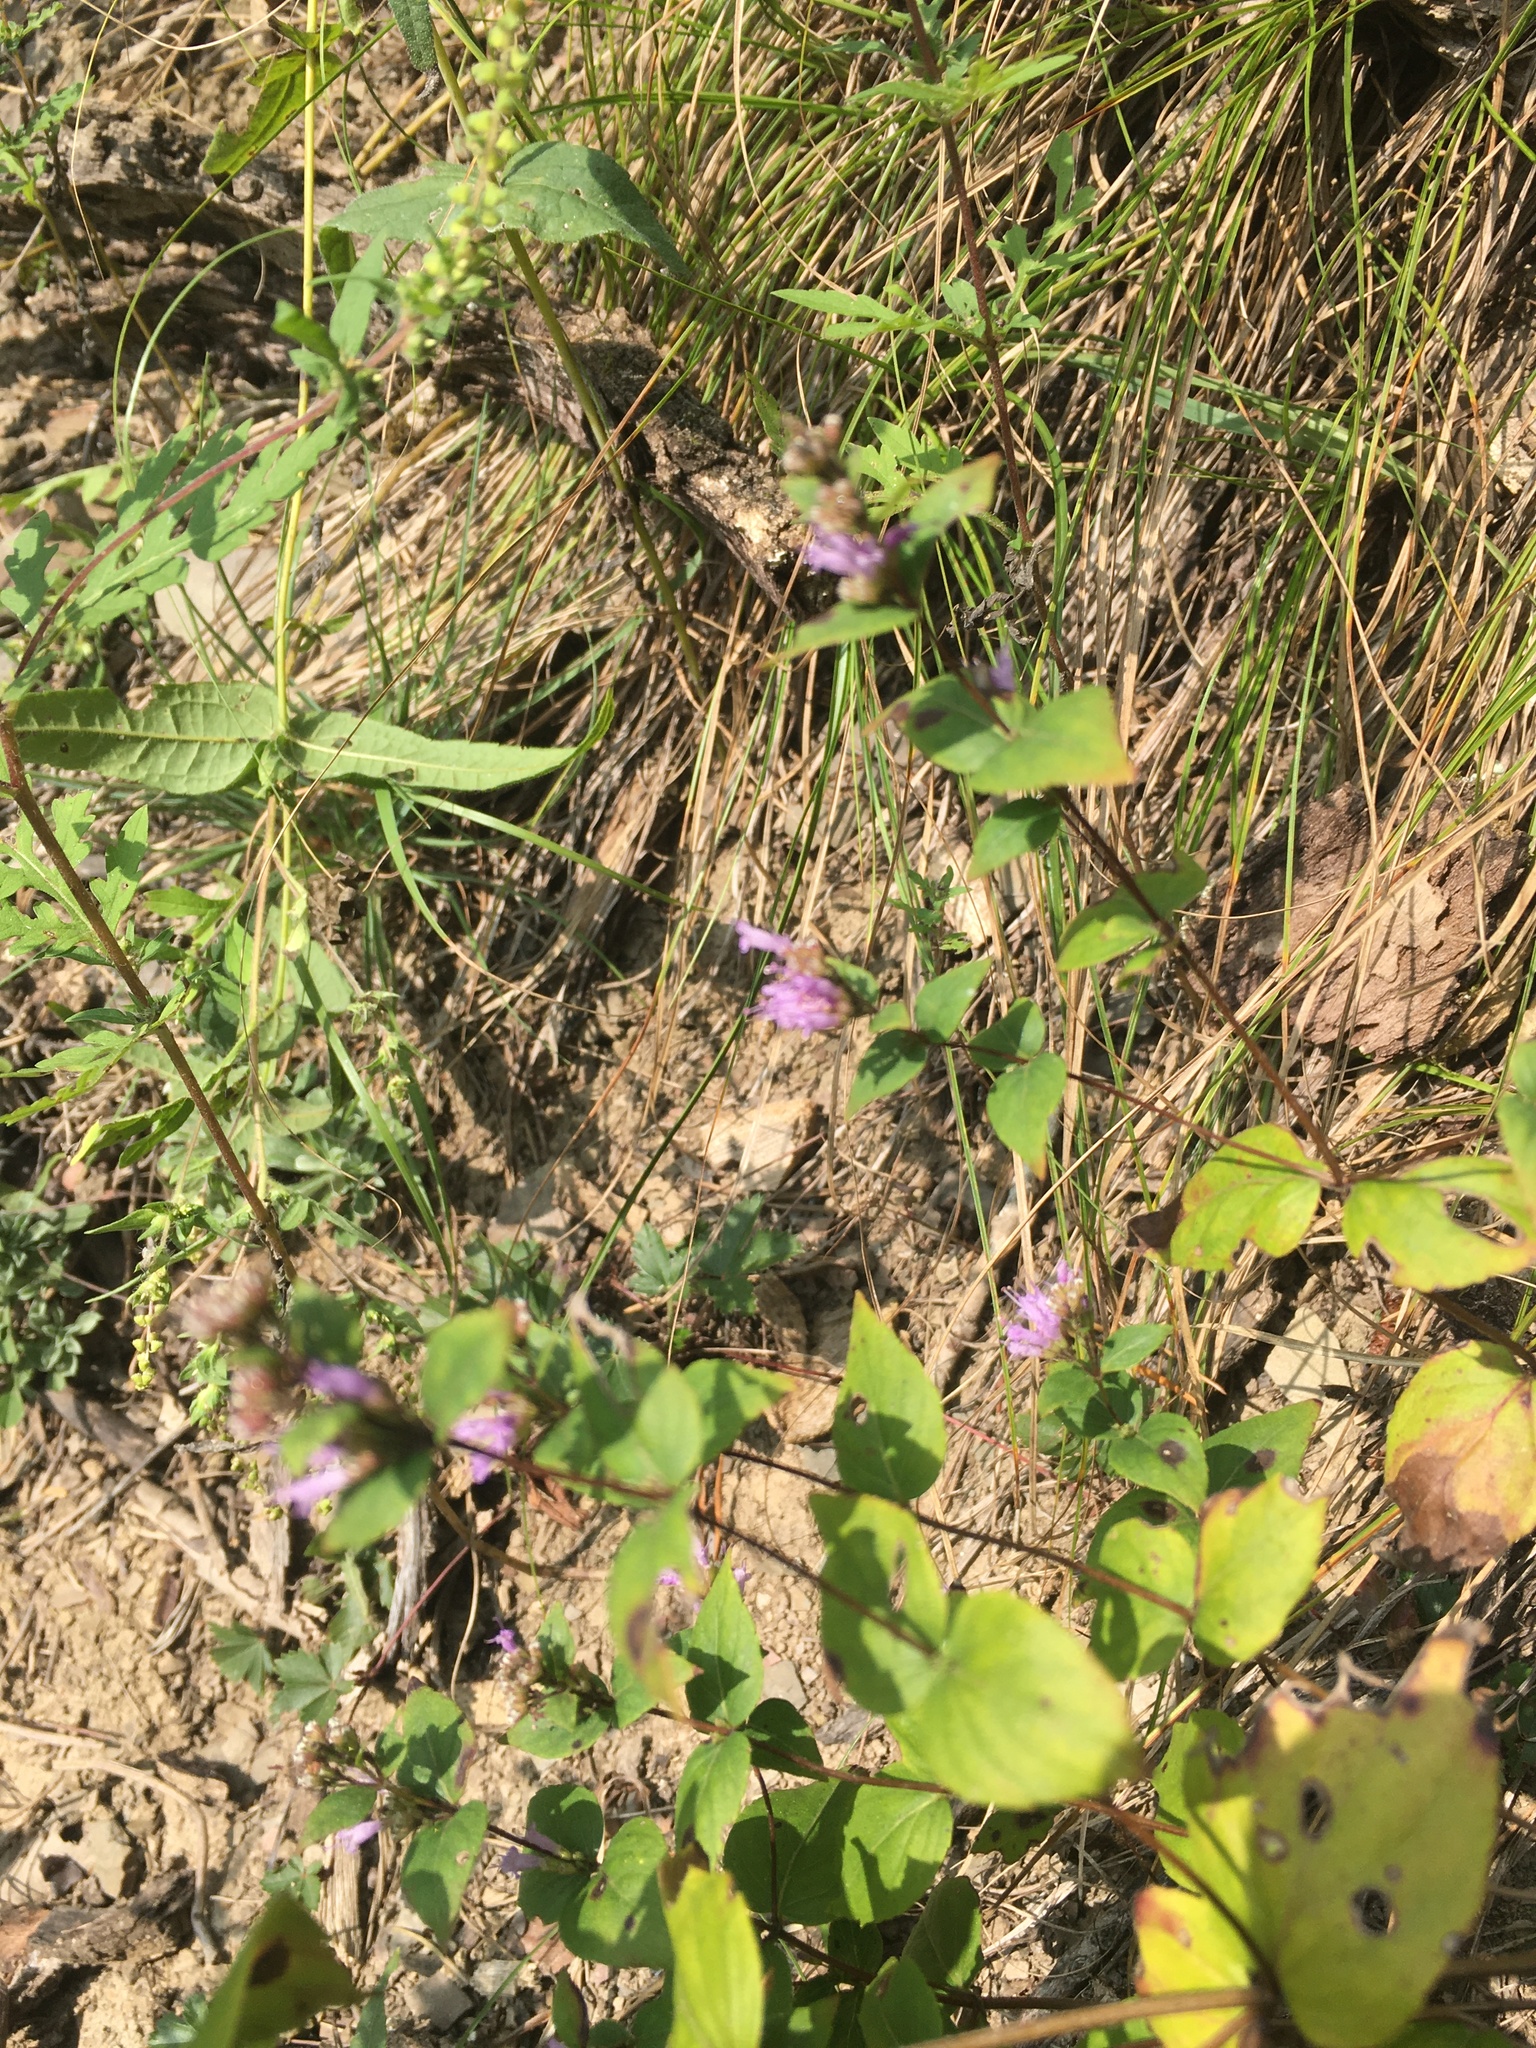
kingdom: Plantae
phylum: Tracheophyta
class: Magnoliopsida
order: Lamiales
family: Lamiaceae
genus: Cunila
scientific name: Cunila origanoides
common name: American dittany
